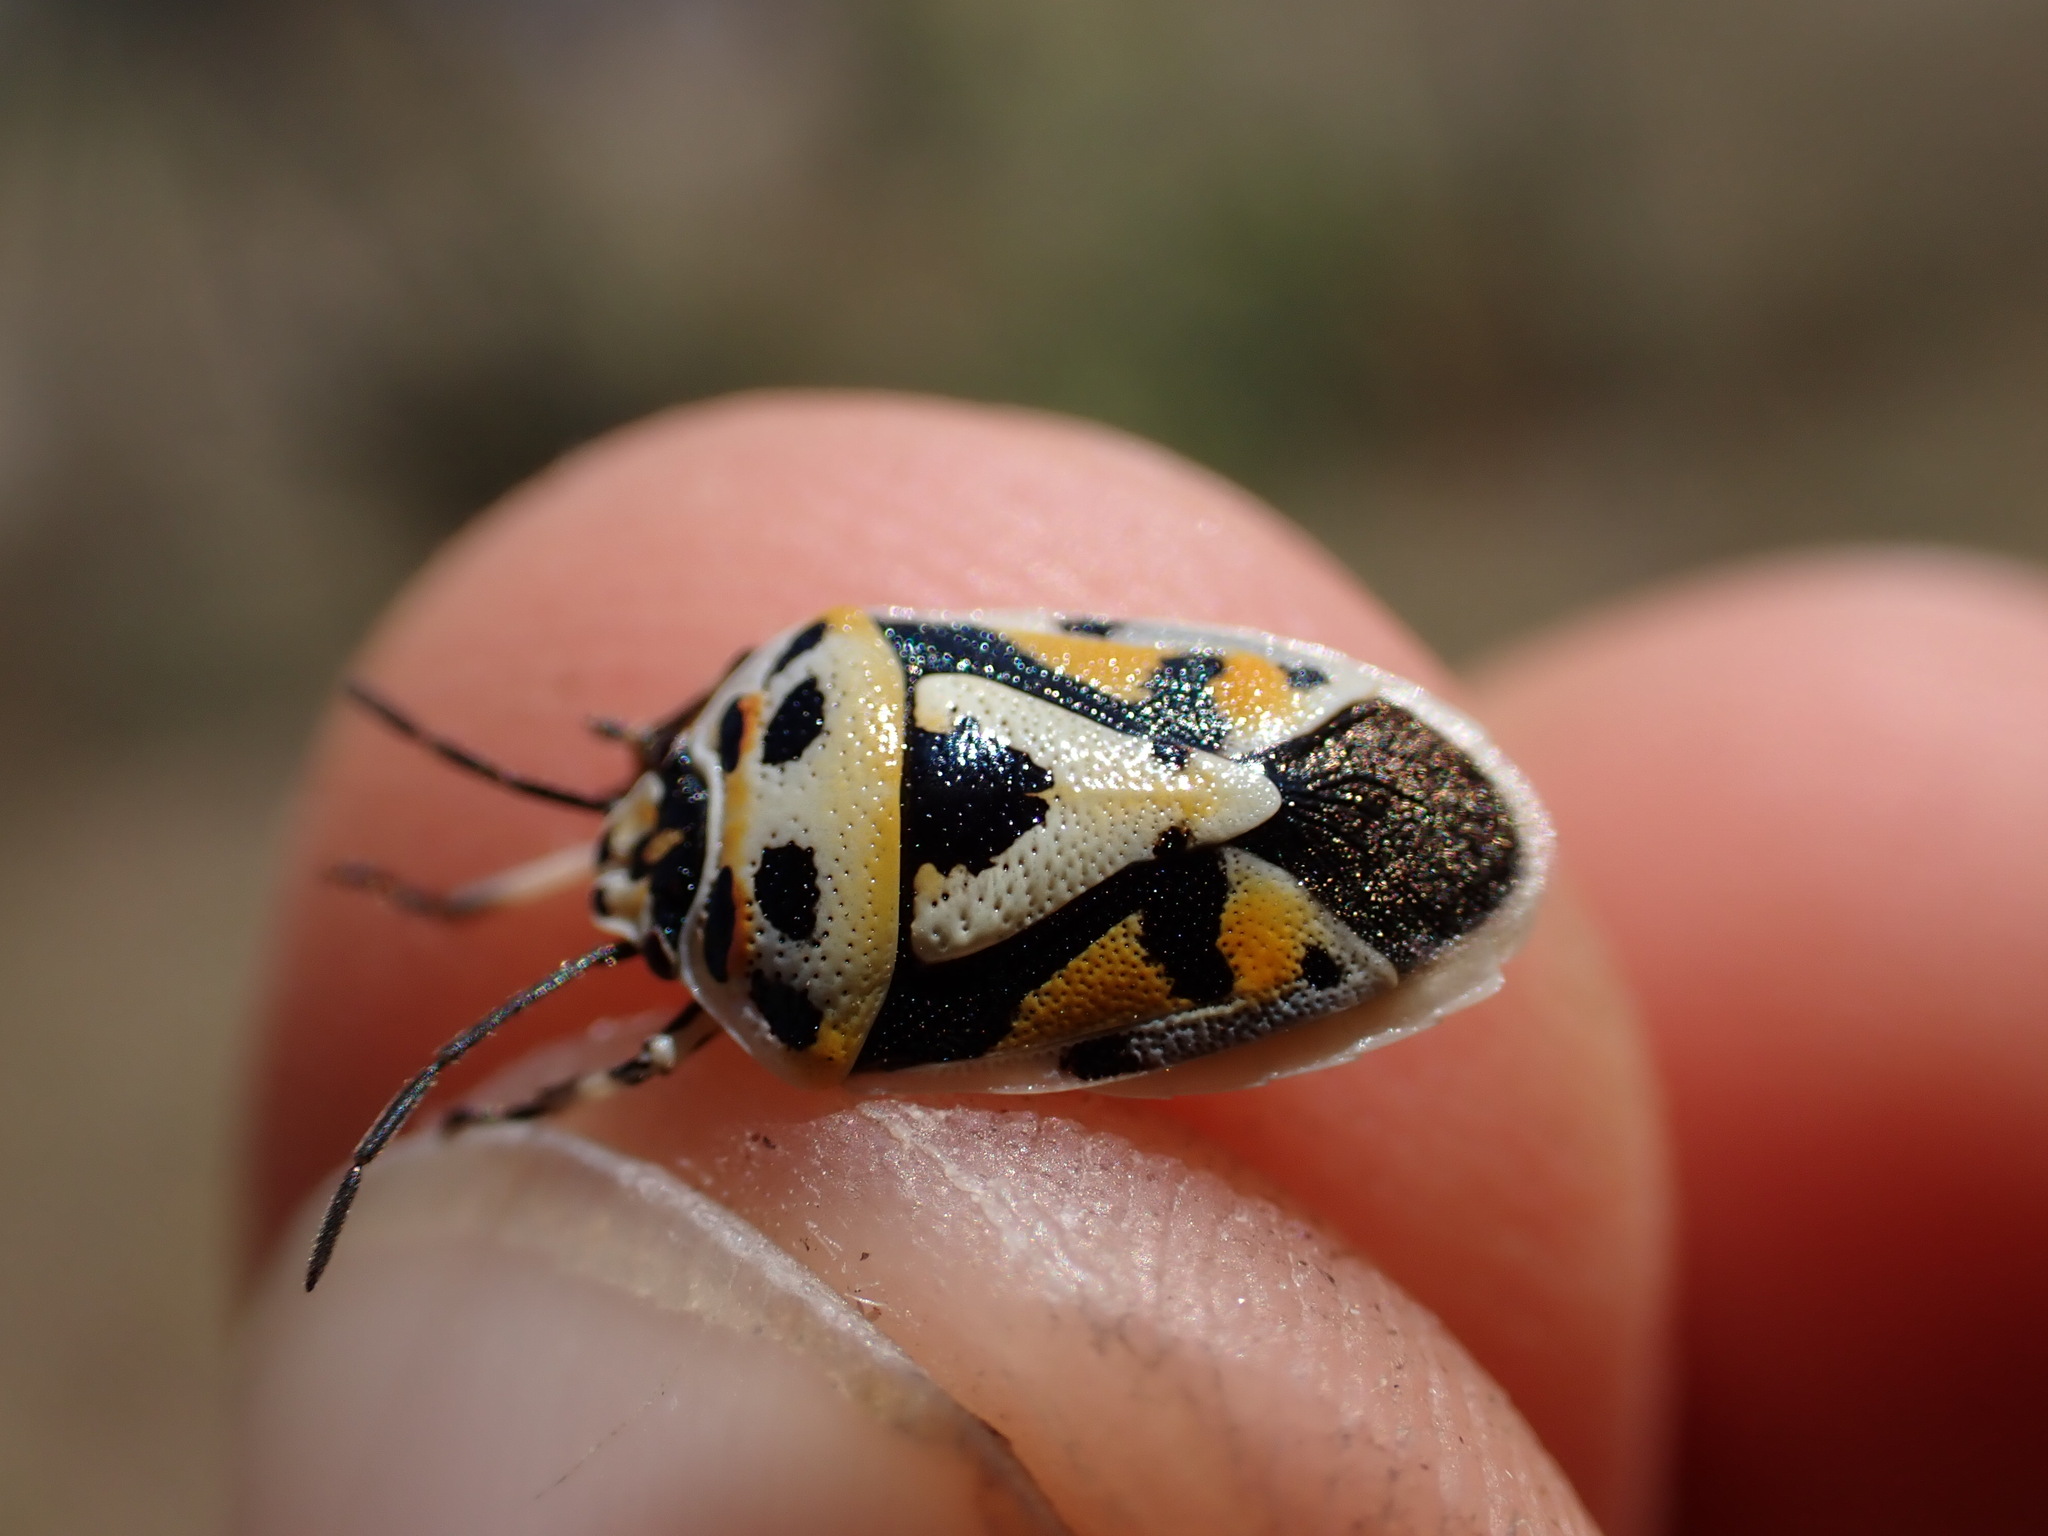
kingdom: Animalia
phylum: Arthropoda
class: Insecta
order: Hemiptera
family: Pentatomidae
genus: Eurydema
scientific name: Eurydema ornata
